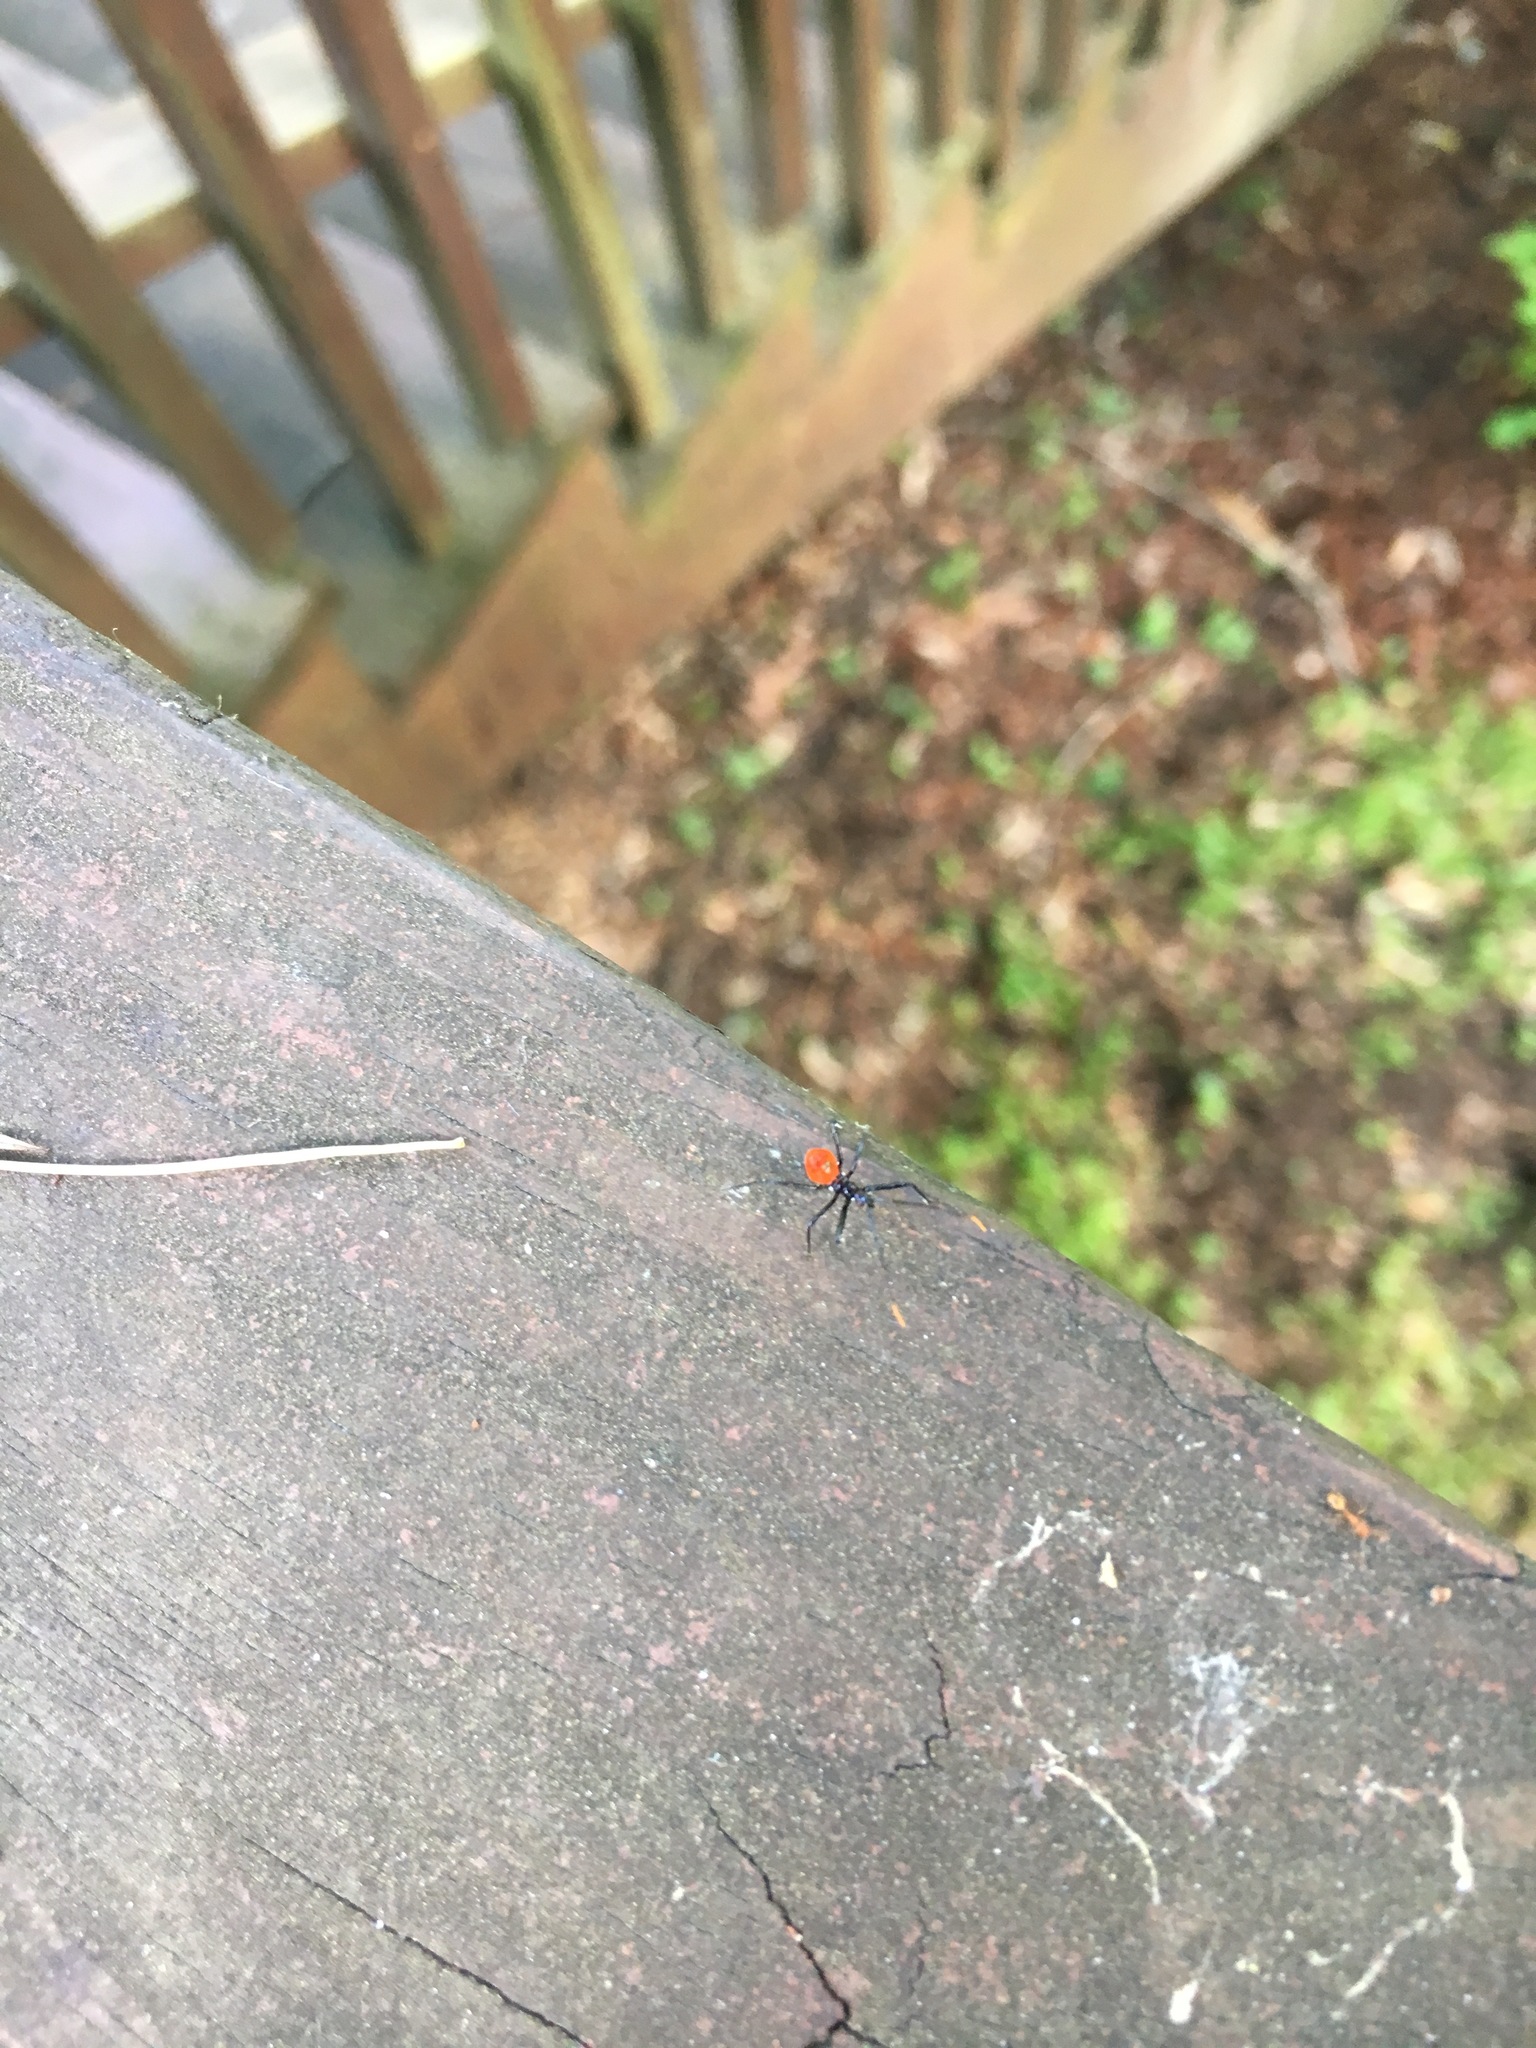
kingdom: Animalia
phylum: Arthropoda
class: Insecta
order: Hemiptera
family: Reduviidae
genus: Arilus
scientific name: Arilus cristatus
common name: North american wheel bug
